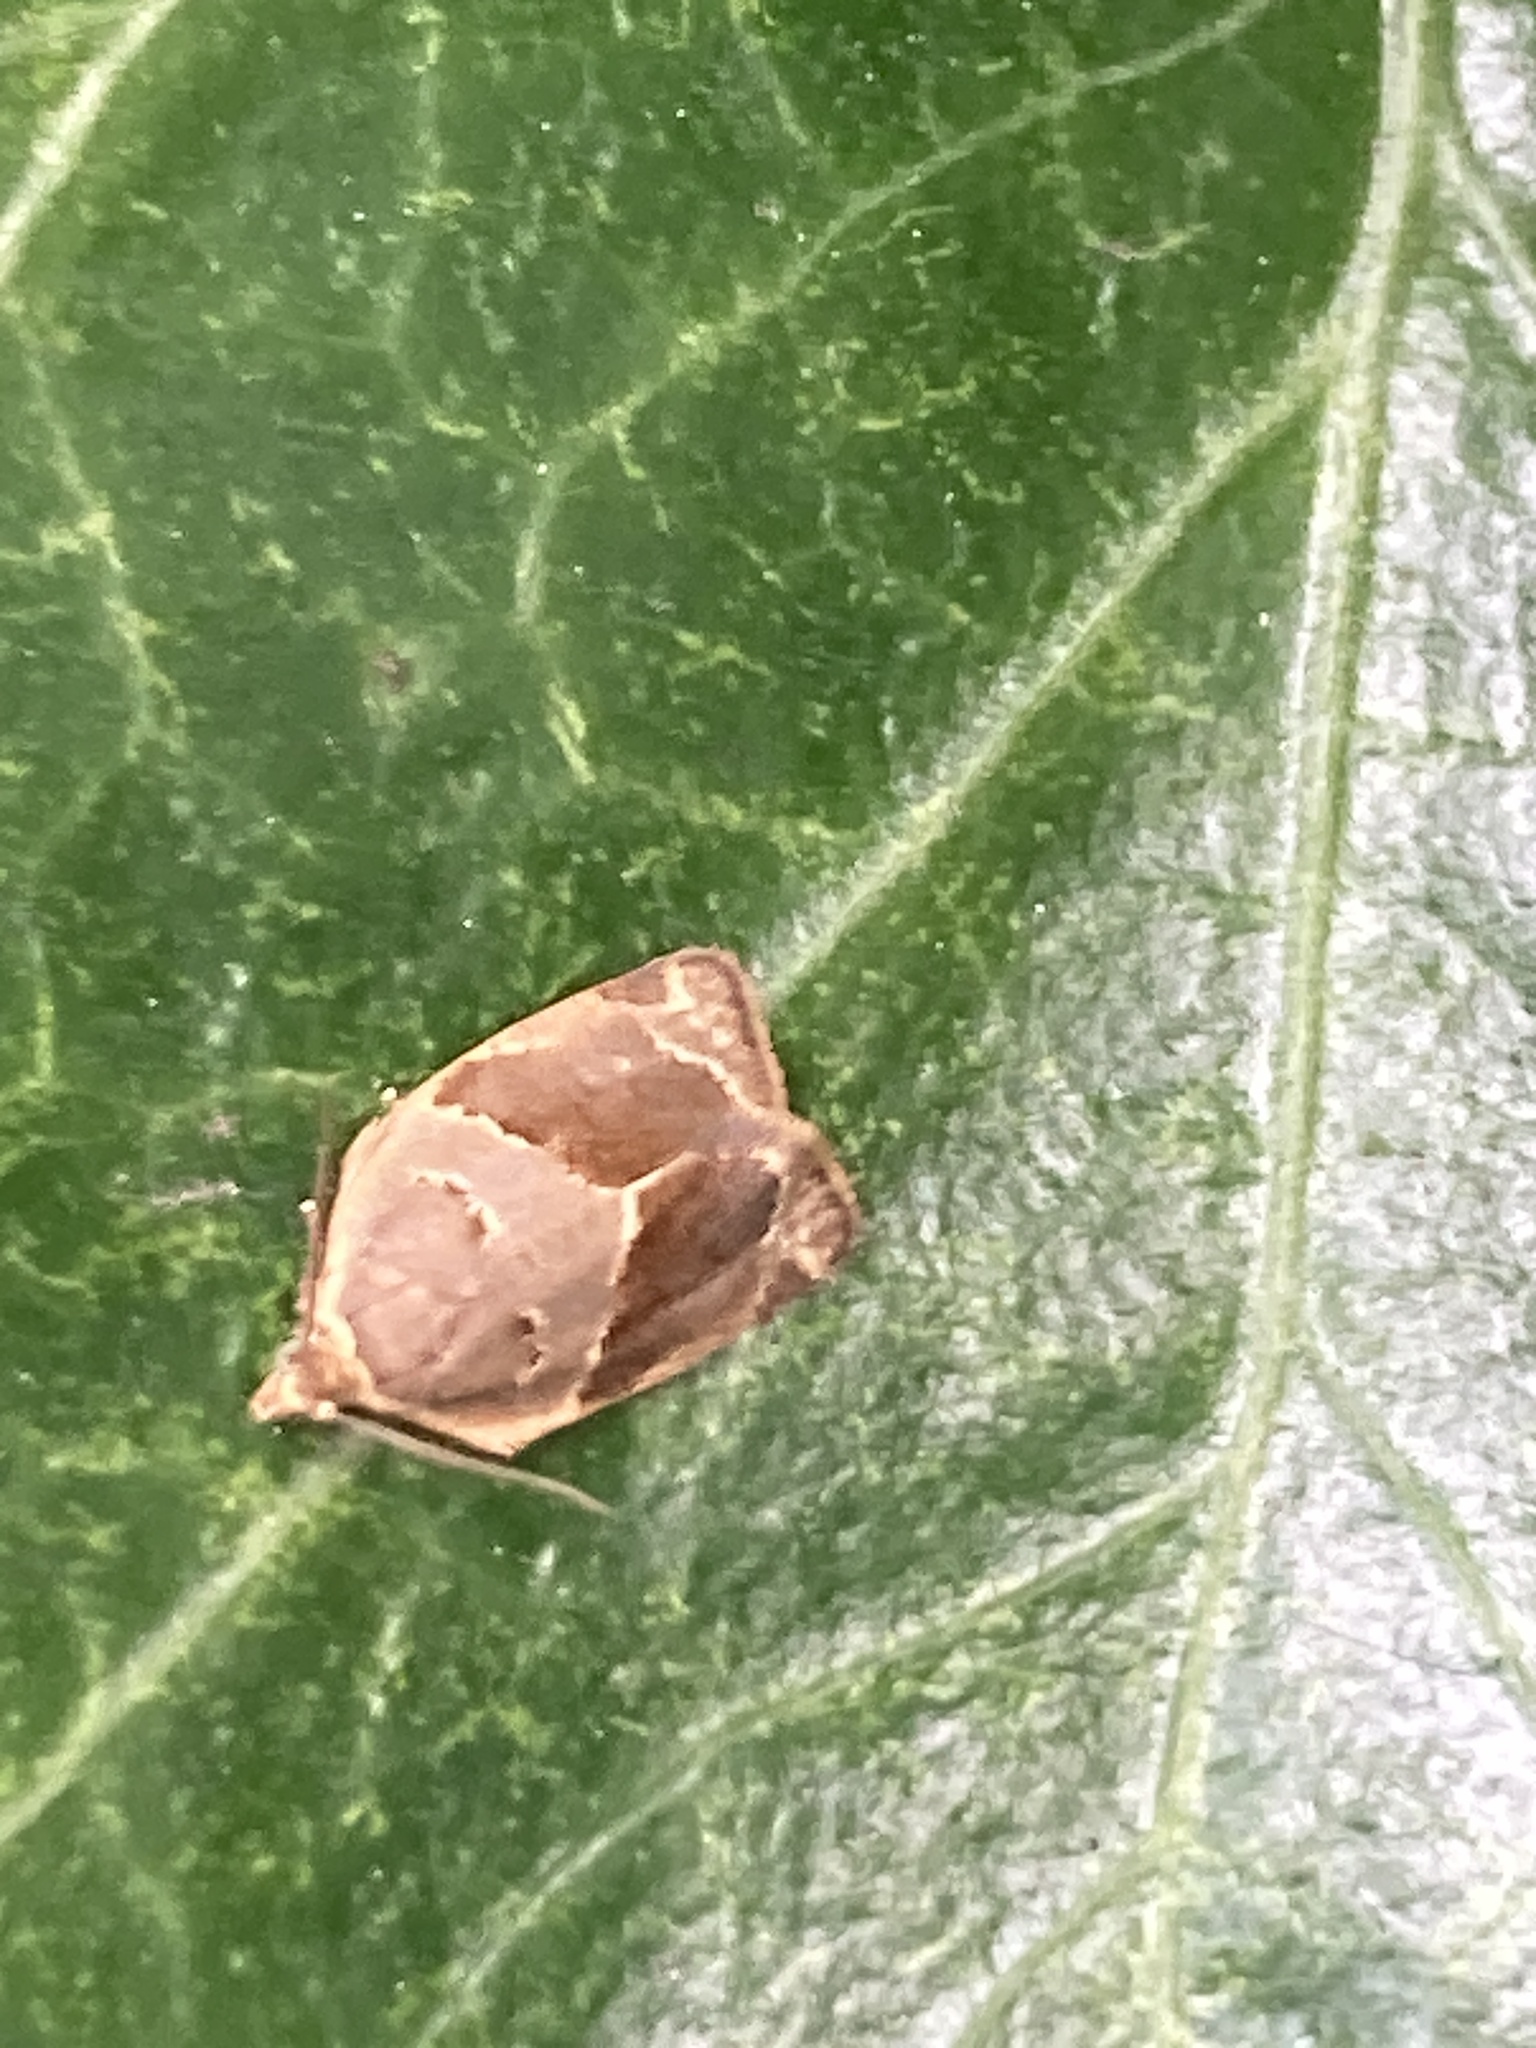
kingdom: Animalia
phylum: Arthropoda
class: Insecta
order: Lepidoptera
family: Tortricidae
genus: Clepsis
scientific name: Clepsis dumicolana
